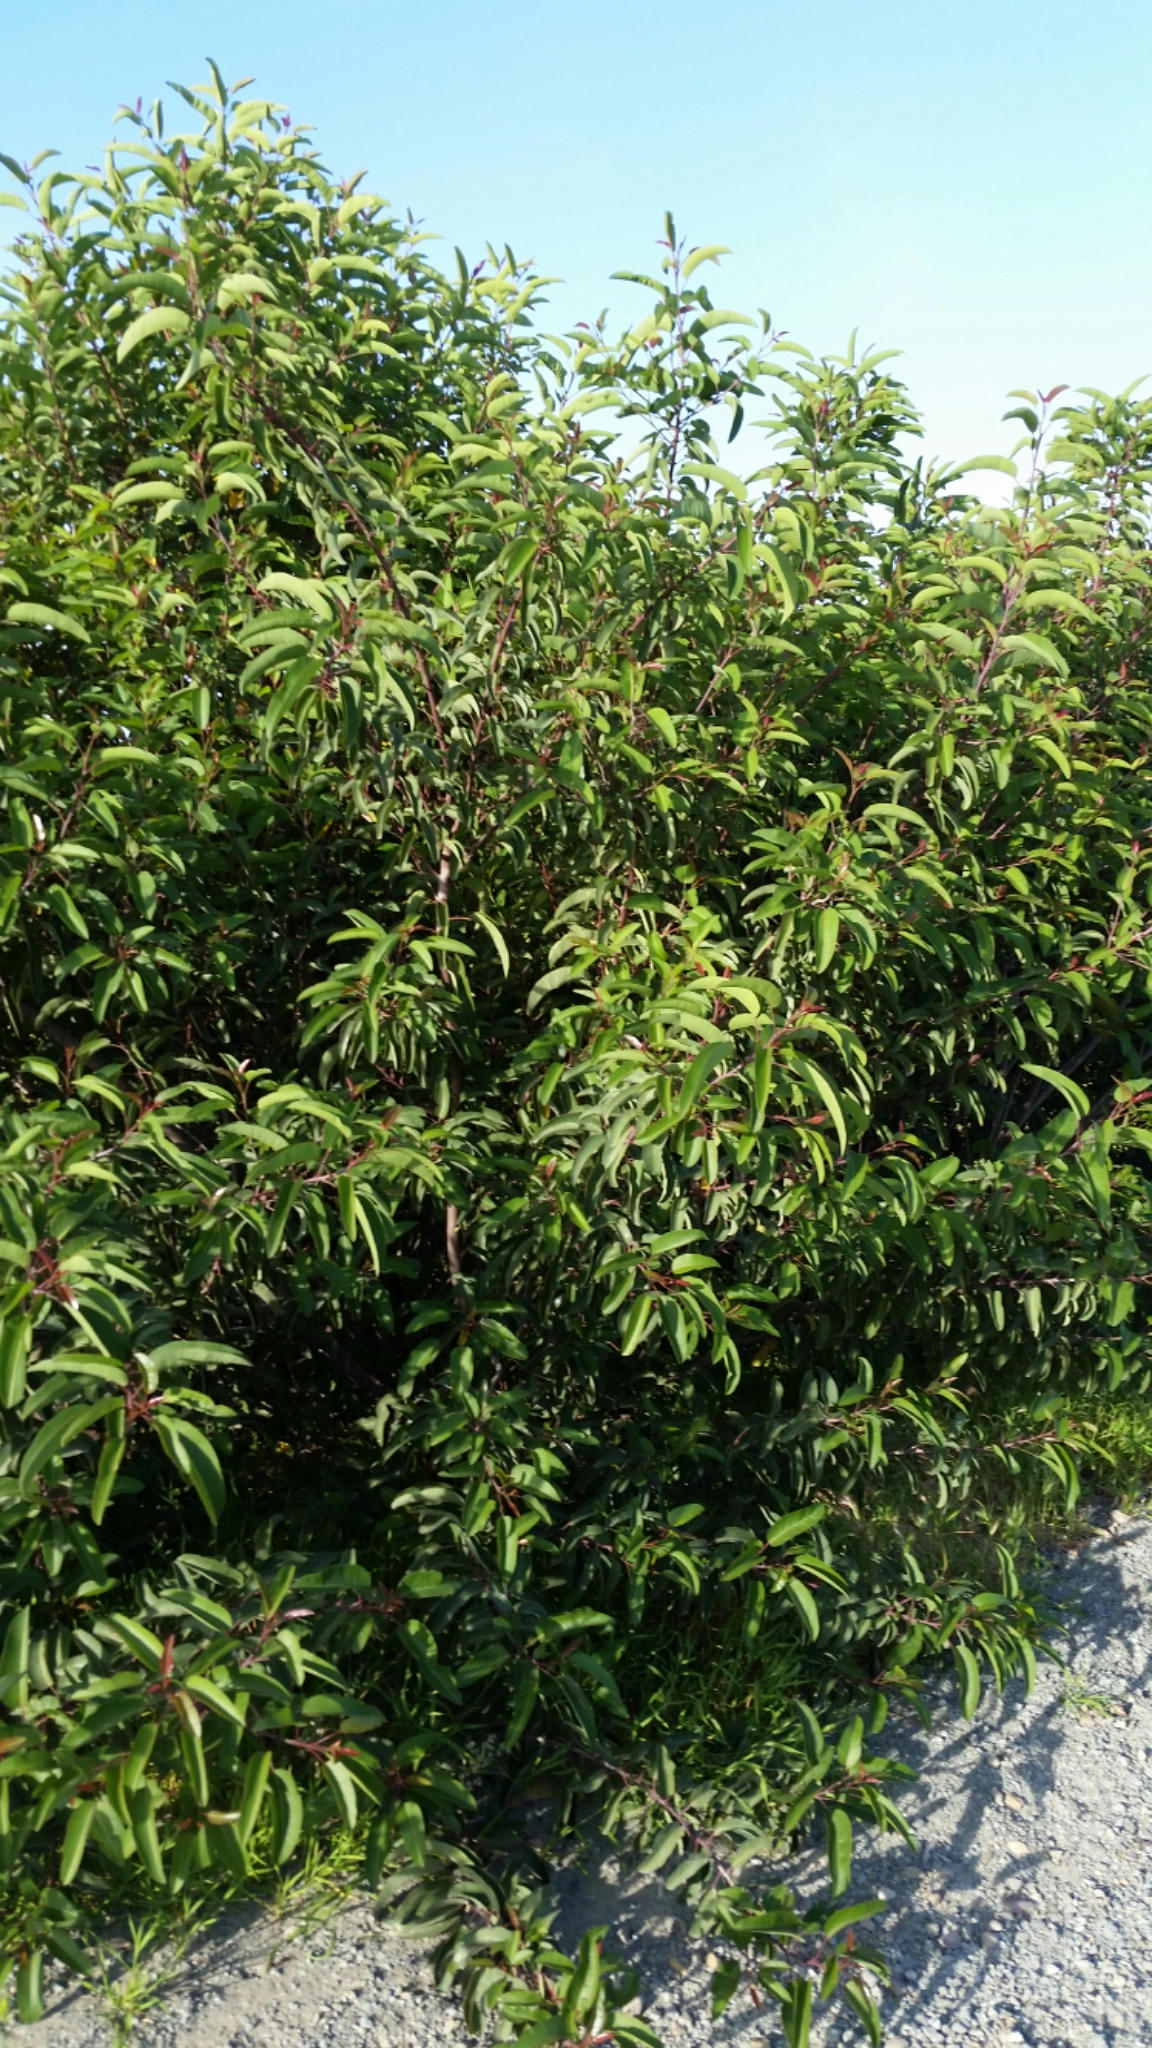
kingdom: Plantae
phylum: Tracheophyta
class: Magnoliopsida
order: Sapindales
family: Anacardiaceae
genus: Malosma
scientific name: Malosma laurina
